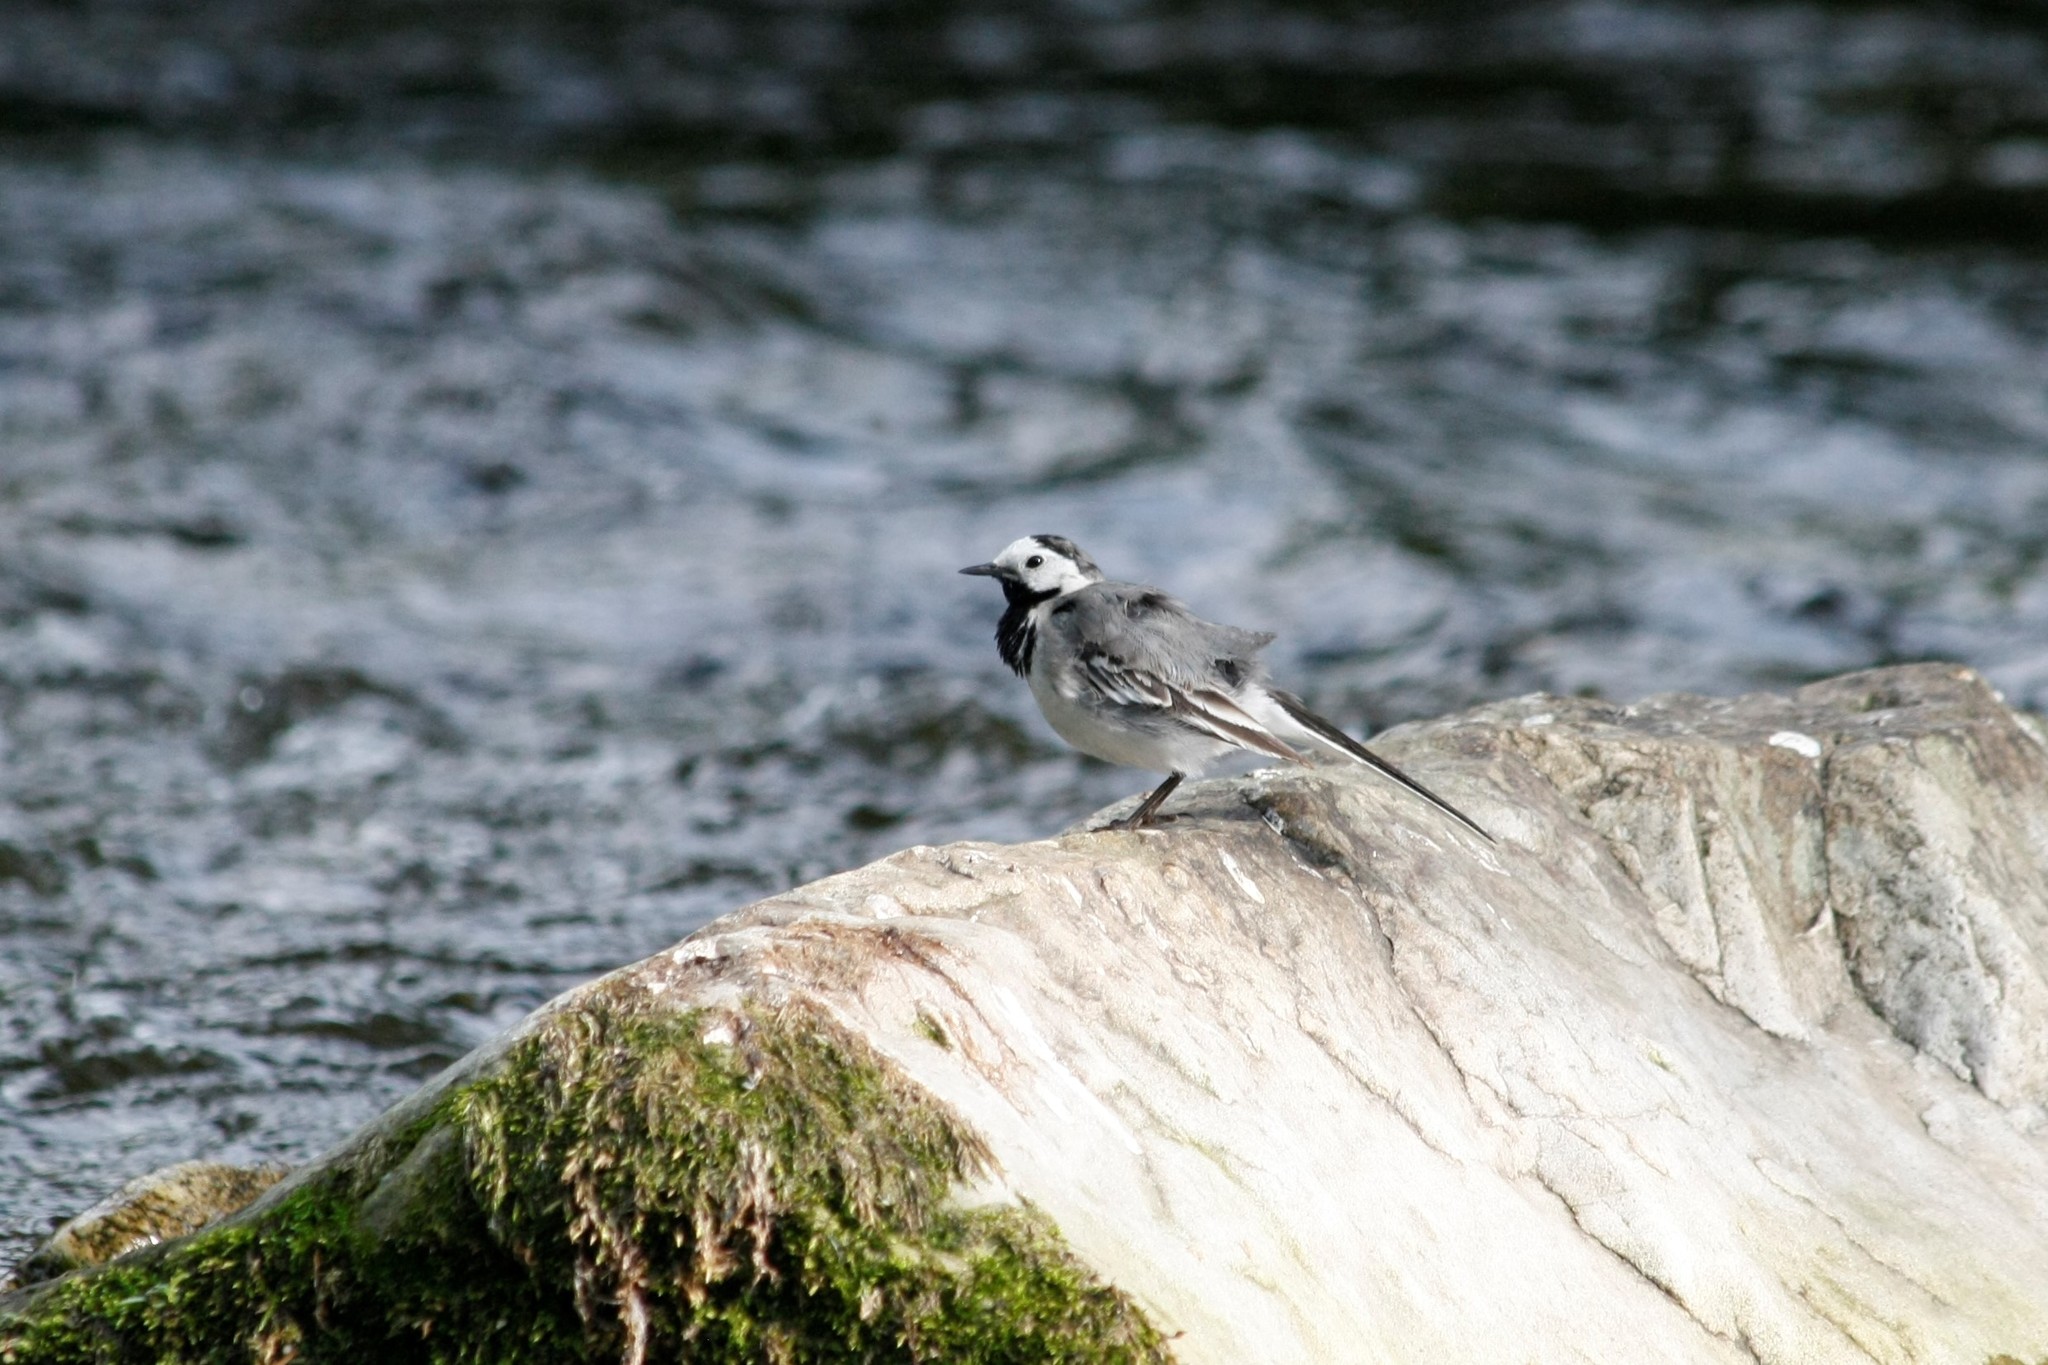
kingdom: Animalia
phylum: Chordata
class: Aves
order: Passeriformes
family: Motacillidae
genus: Motacilla
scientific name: Motacilla alba
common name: White wagtail
